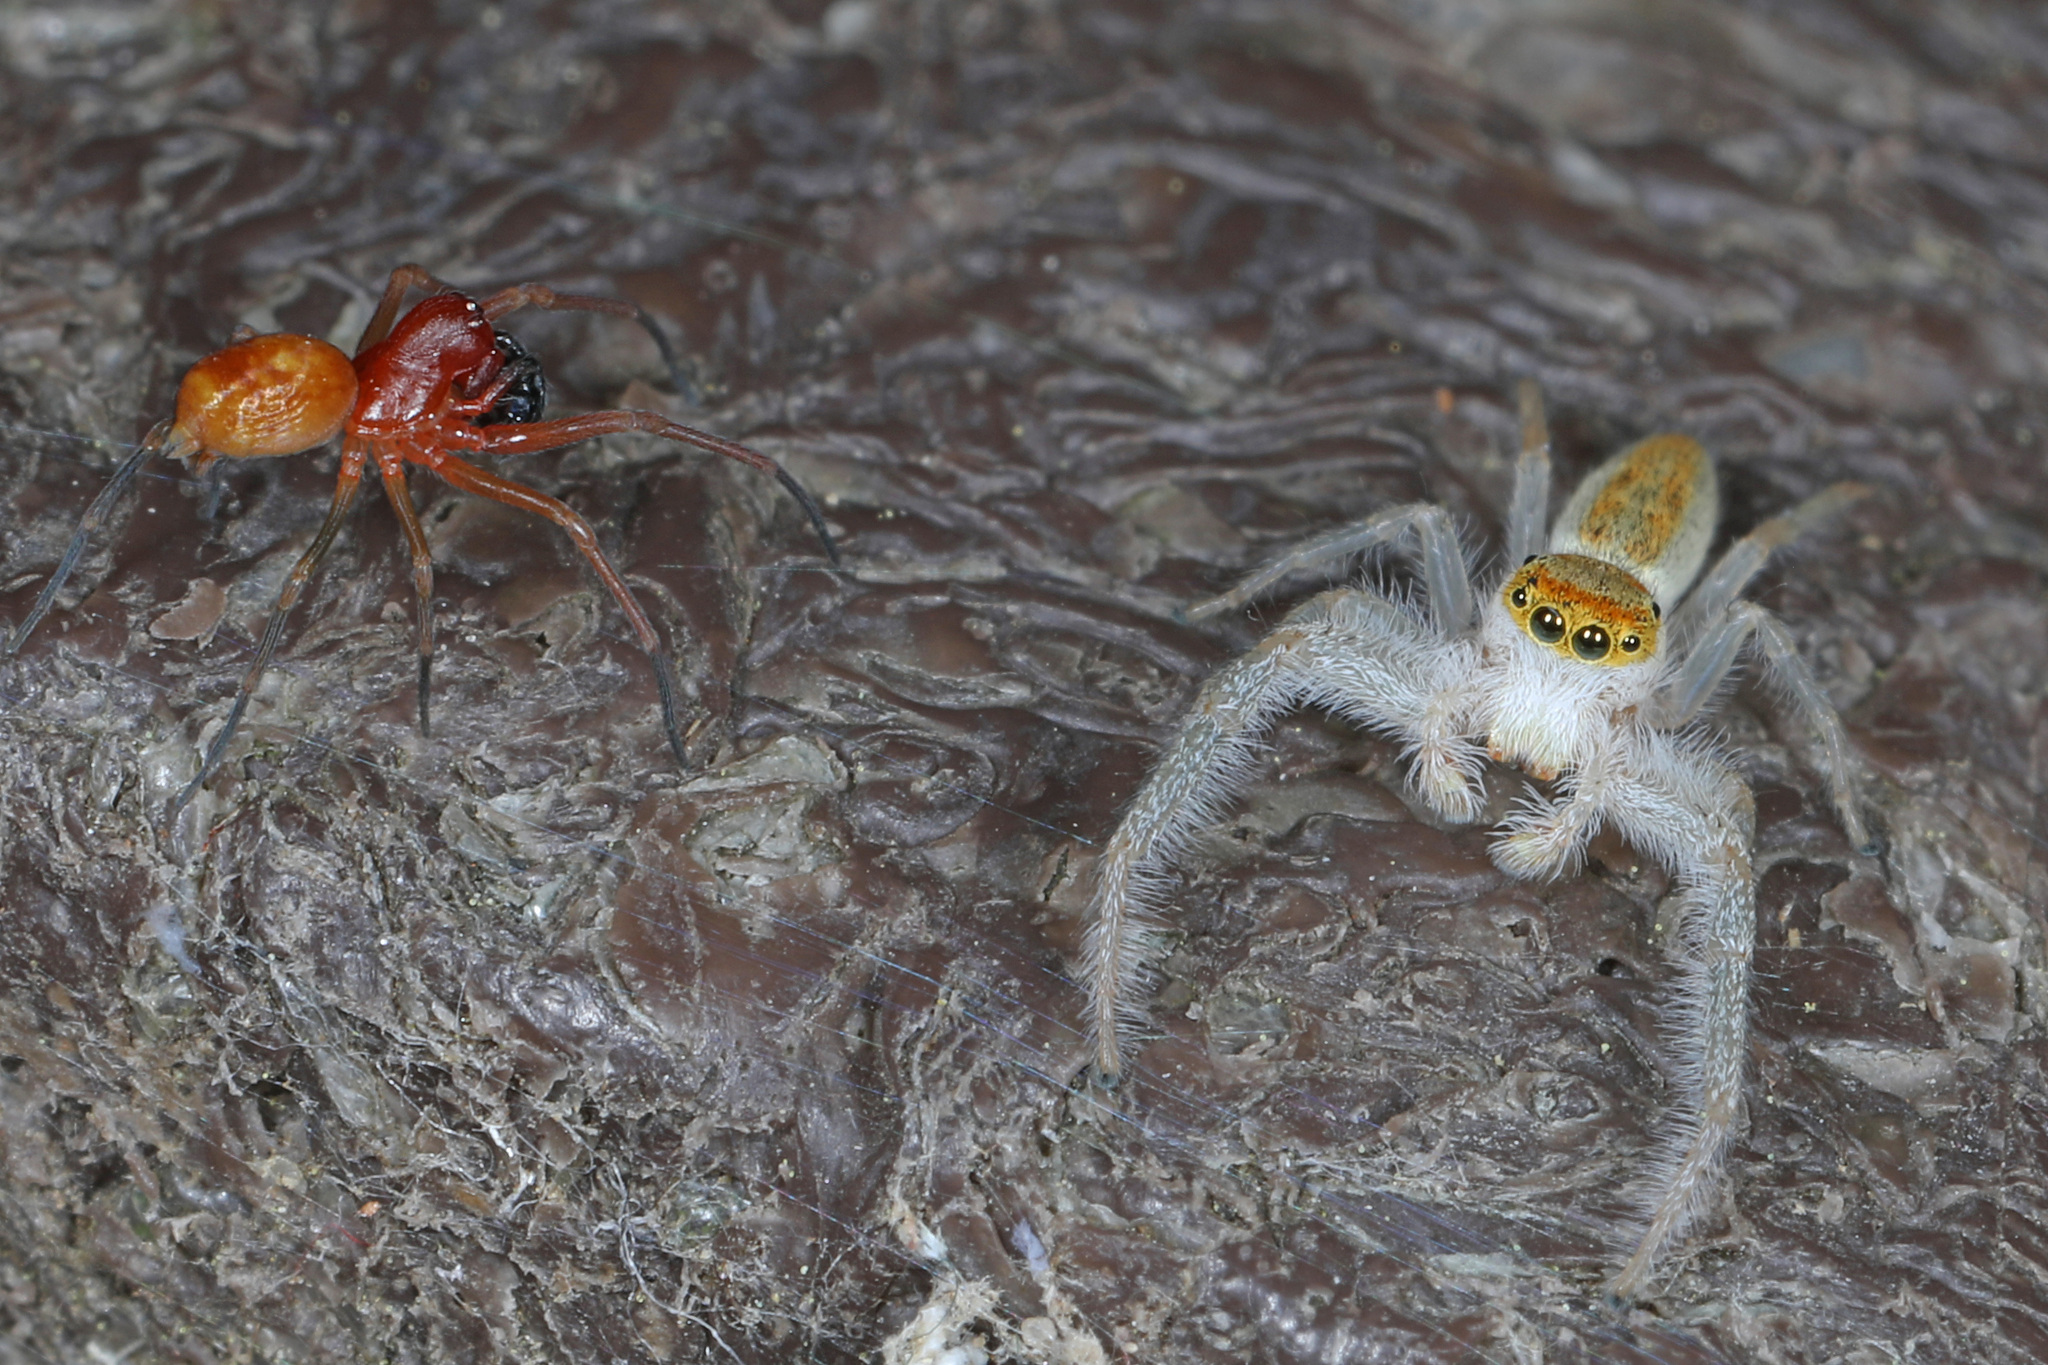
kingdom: Animalia
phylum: Arthropoda
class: Arachnida
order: Araneae
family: Salticidae
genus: Hentzia
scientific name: Hentzia mitrata
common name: White-jawed jumping spider
